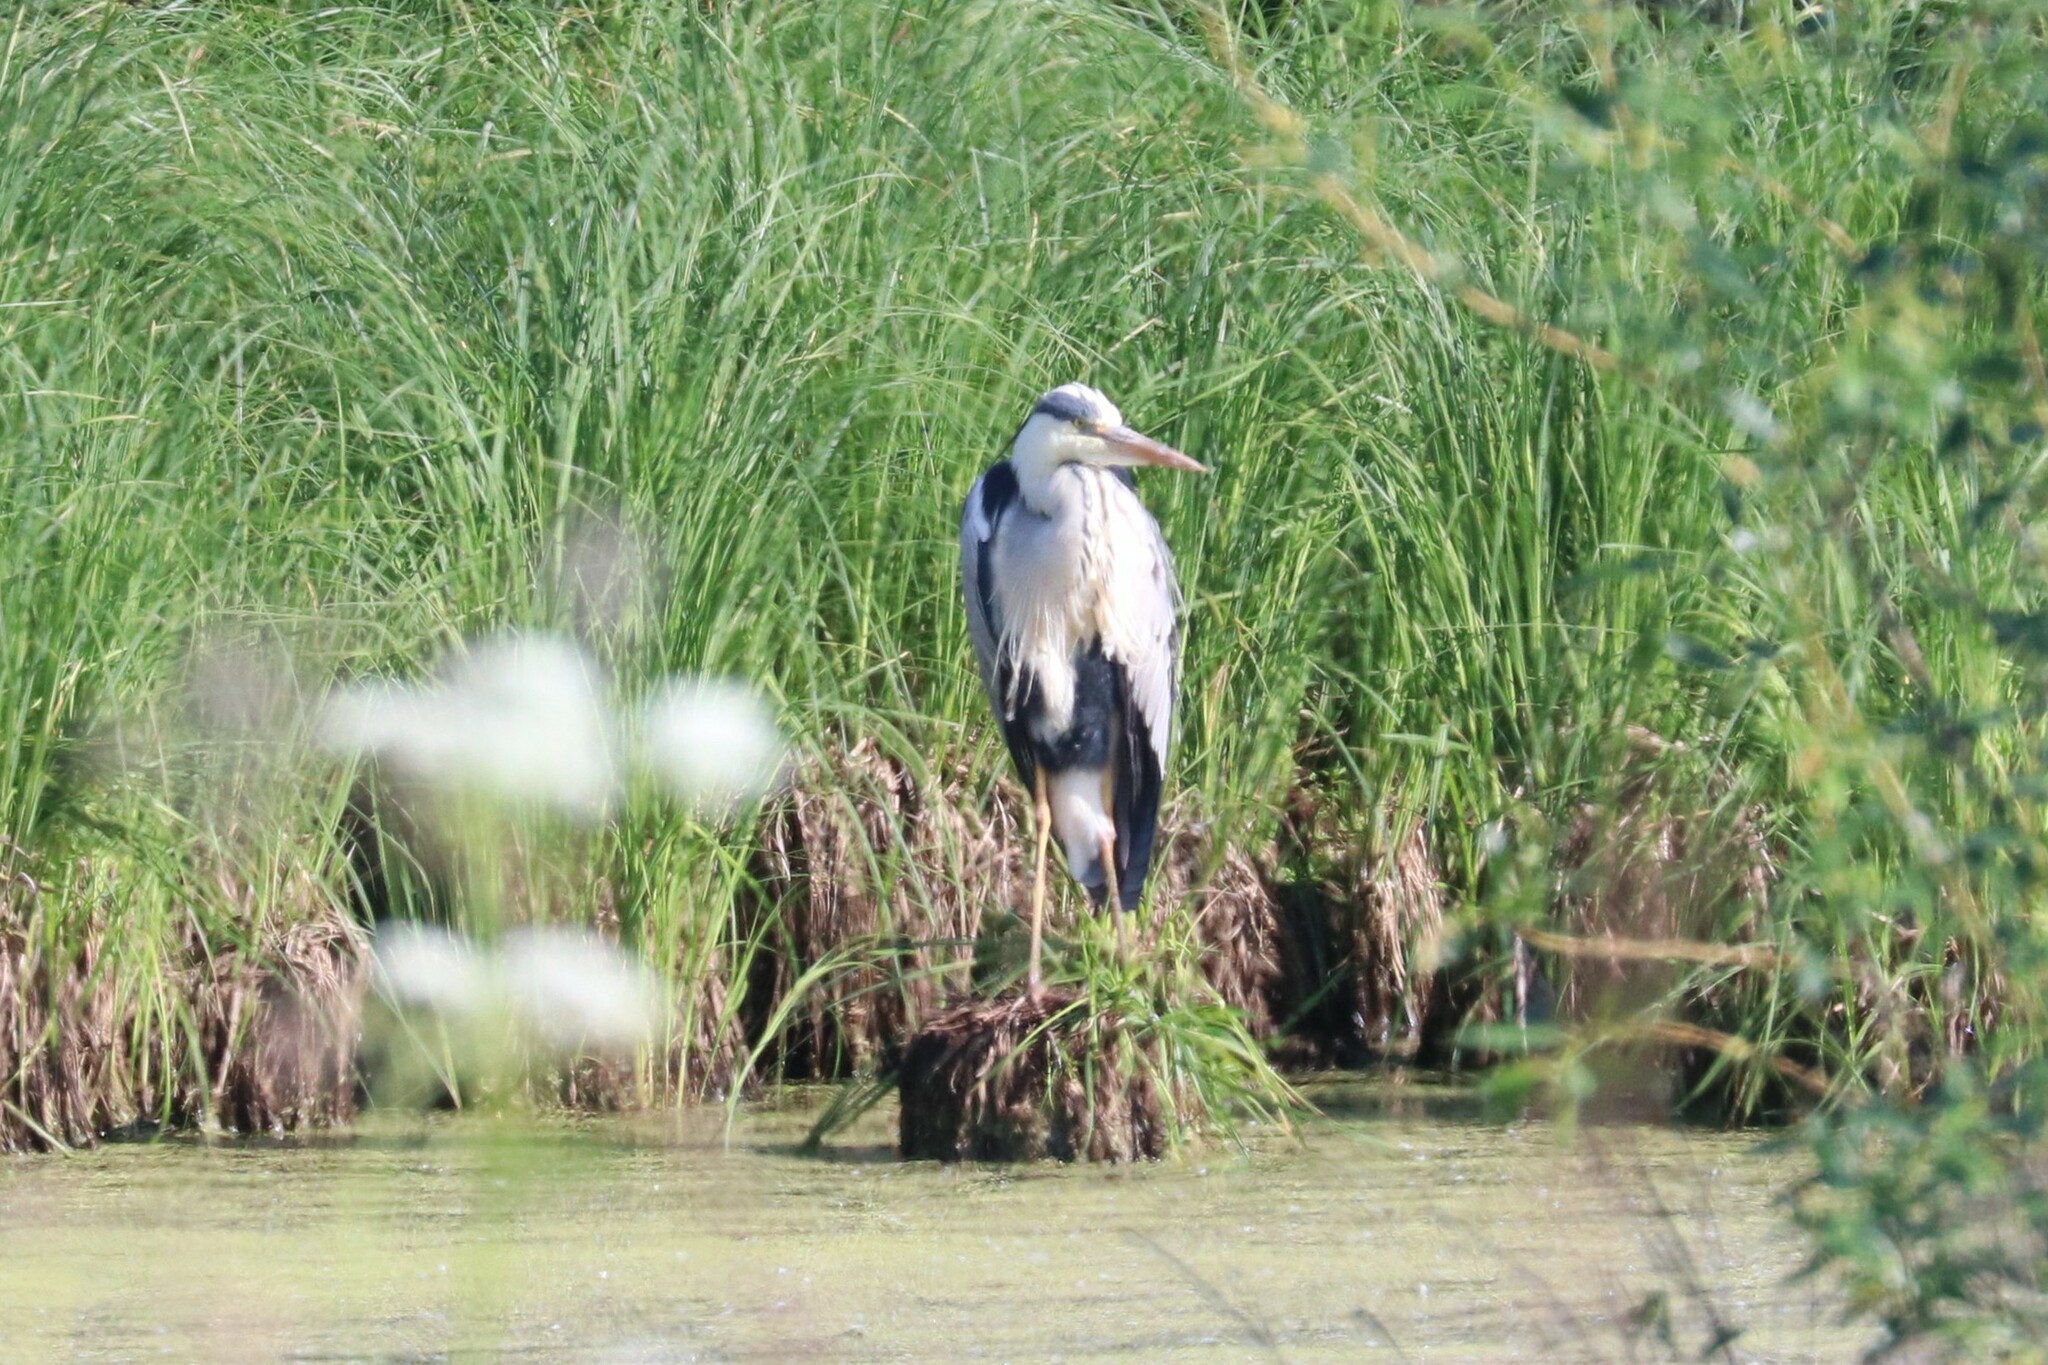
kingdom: Animalia
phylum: Chordata
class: Aves
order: Pelecaniformes
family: Ardeidae
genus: Ardea
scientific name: Ardea cinerea
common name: Grey heron
